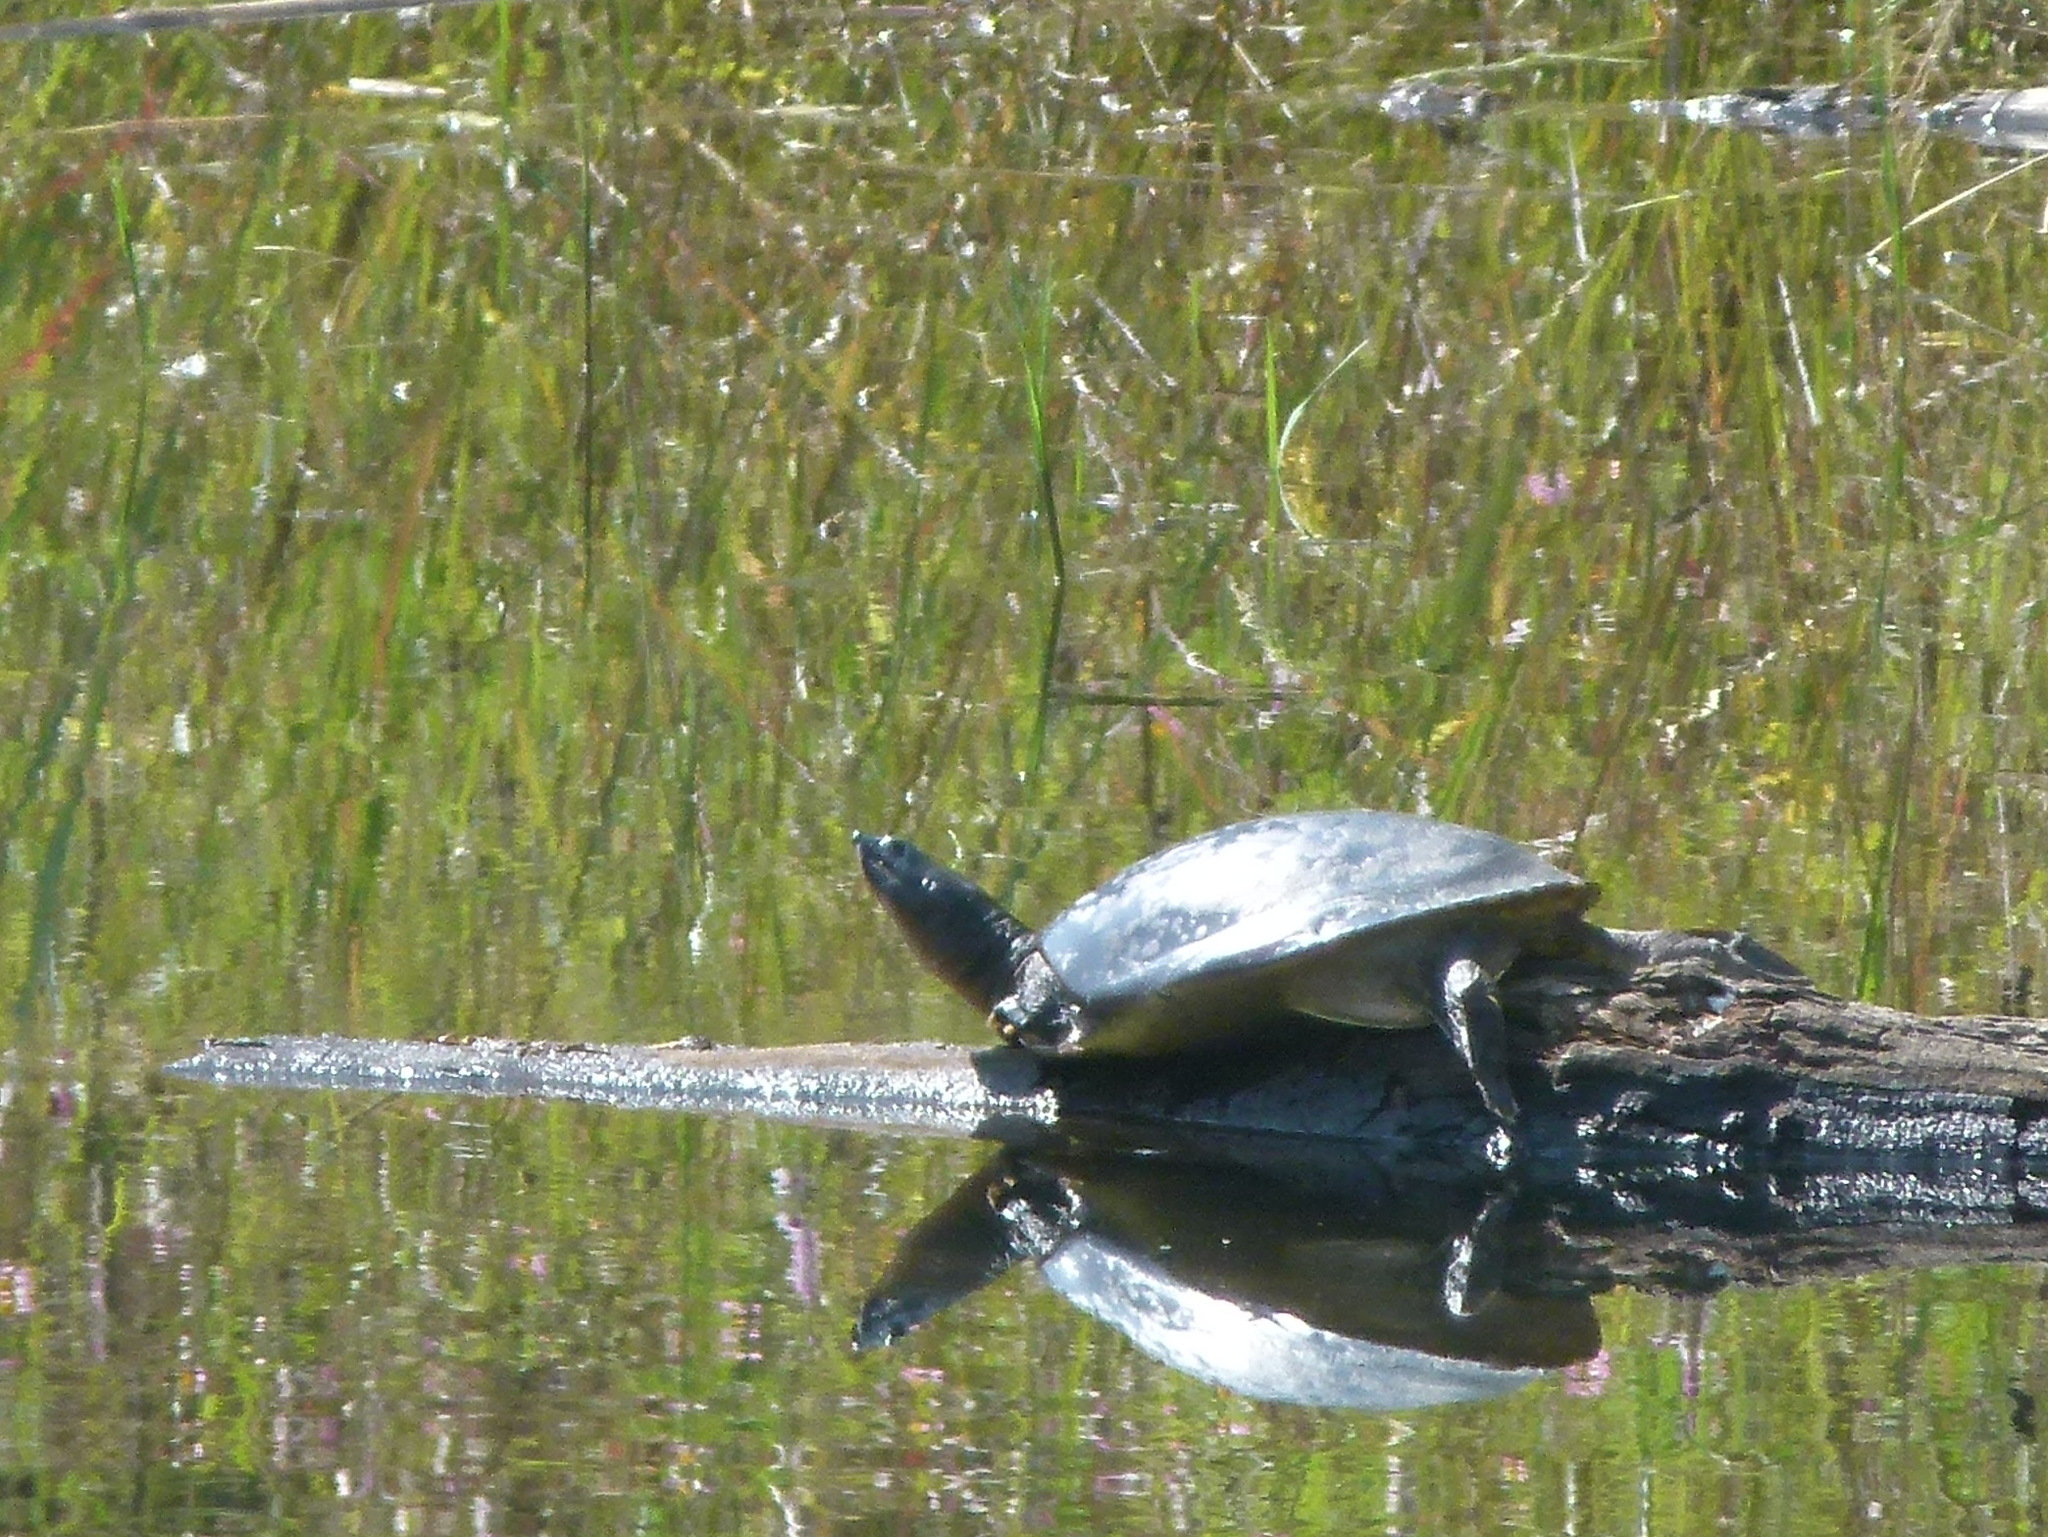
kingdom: Animalia
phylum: Chordata
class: Testudines
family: Trionychidae
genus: Lissemys
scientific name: Lissemys punctata
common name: Indian flap-shelled turtle
